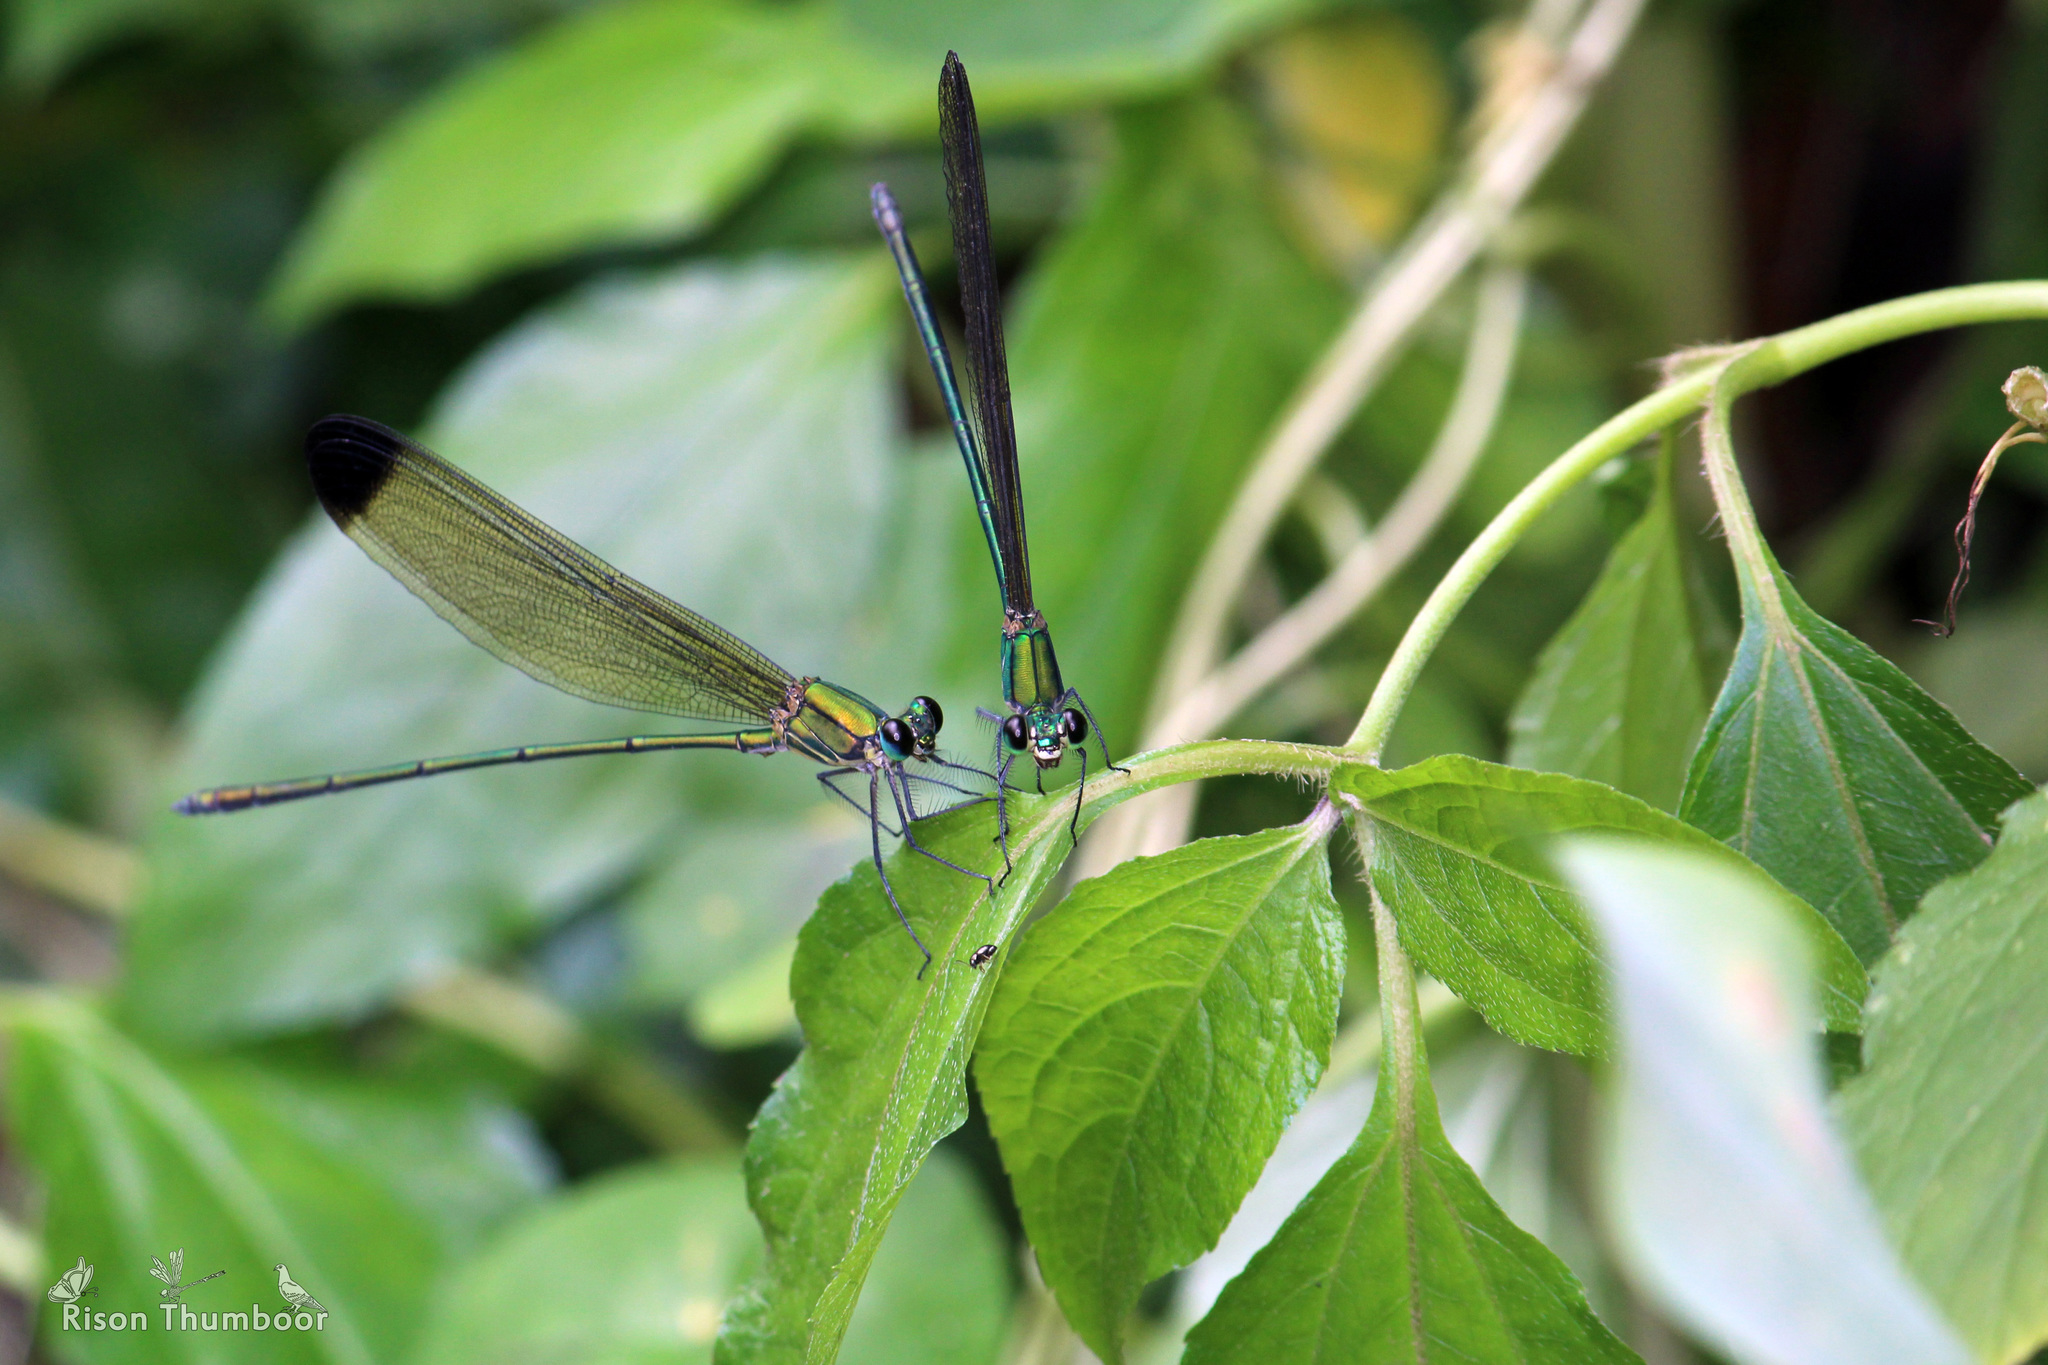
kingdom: Animalia
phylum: Arthropoda
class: Insecta
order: Odonata
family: Calopterygidae
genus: Vestalis
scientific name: Vestalis apicalis
